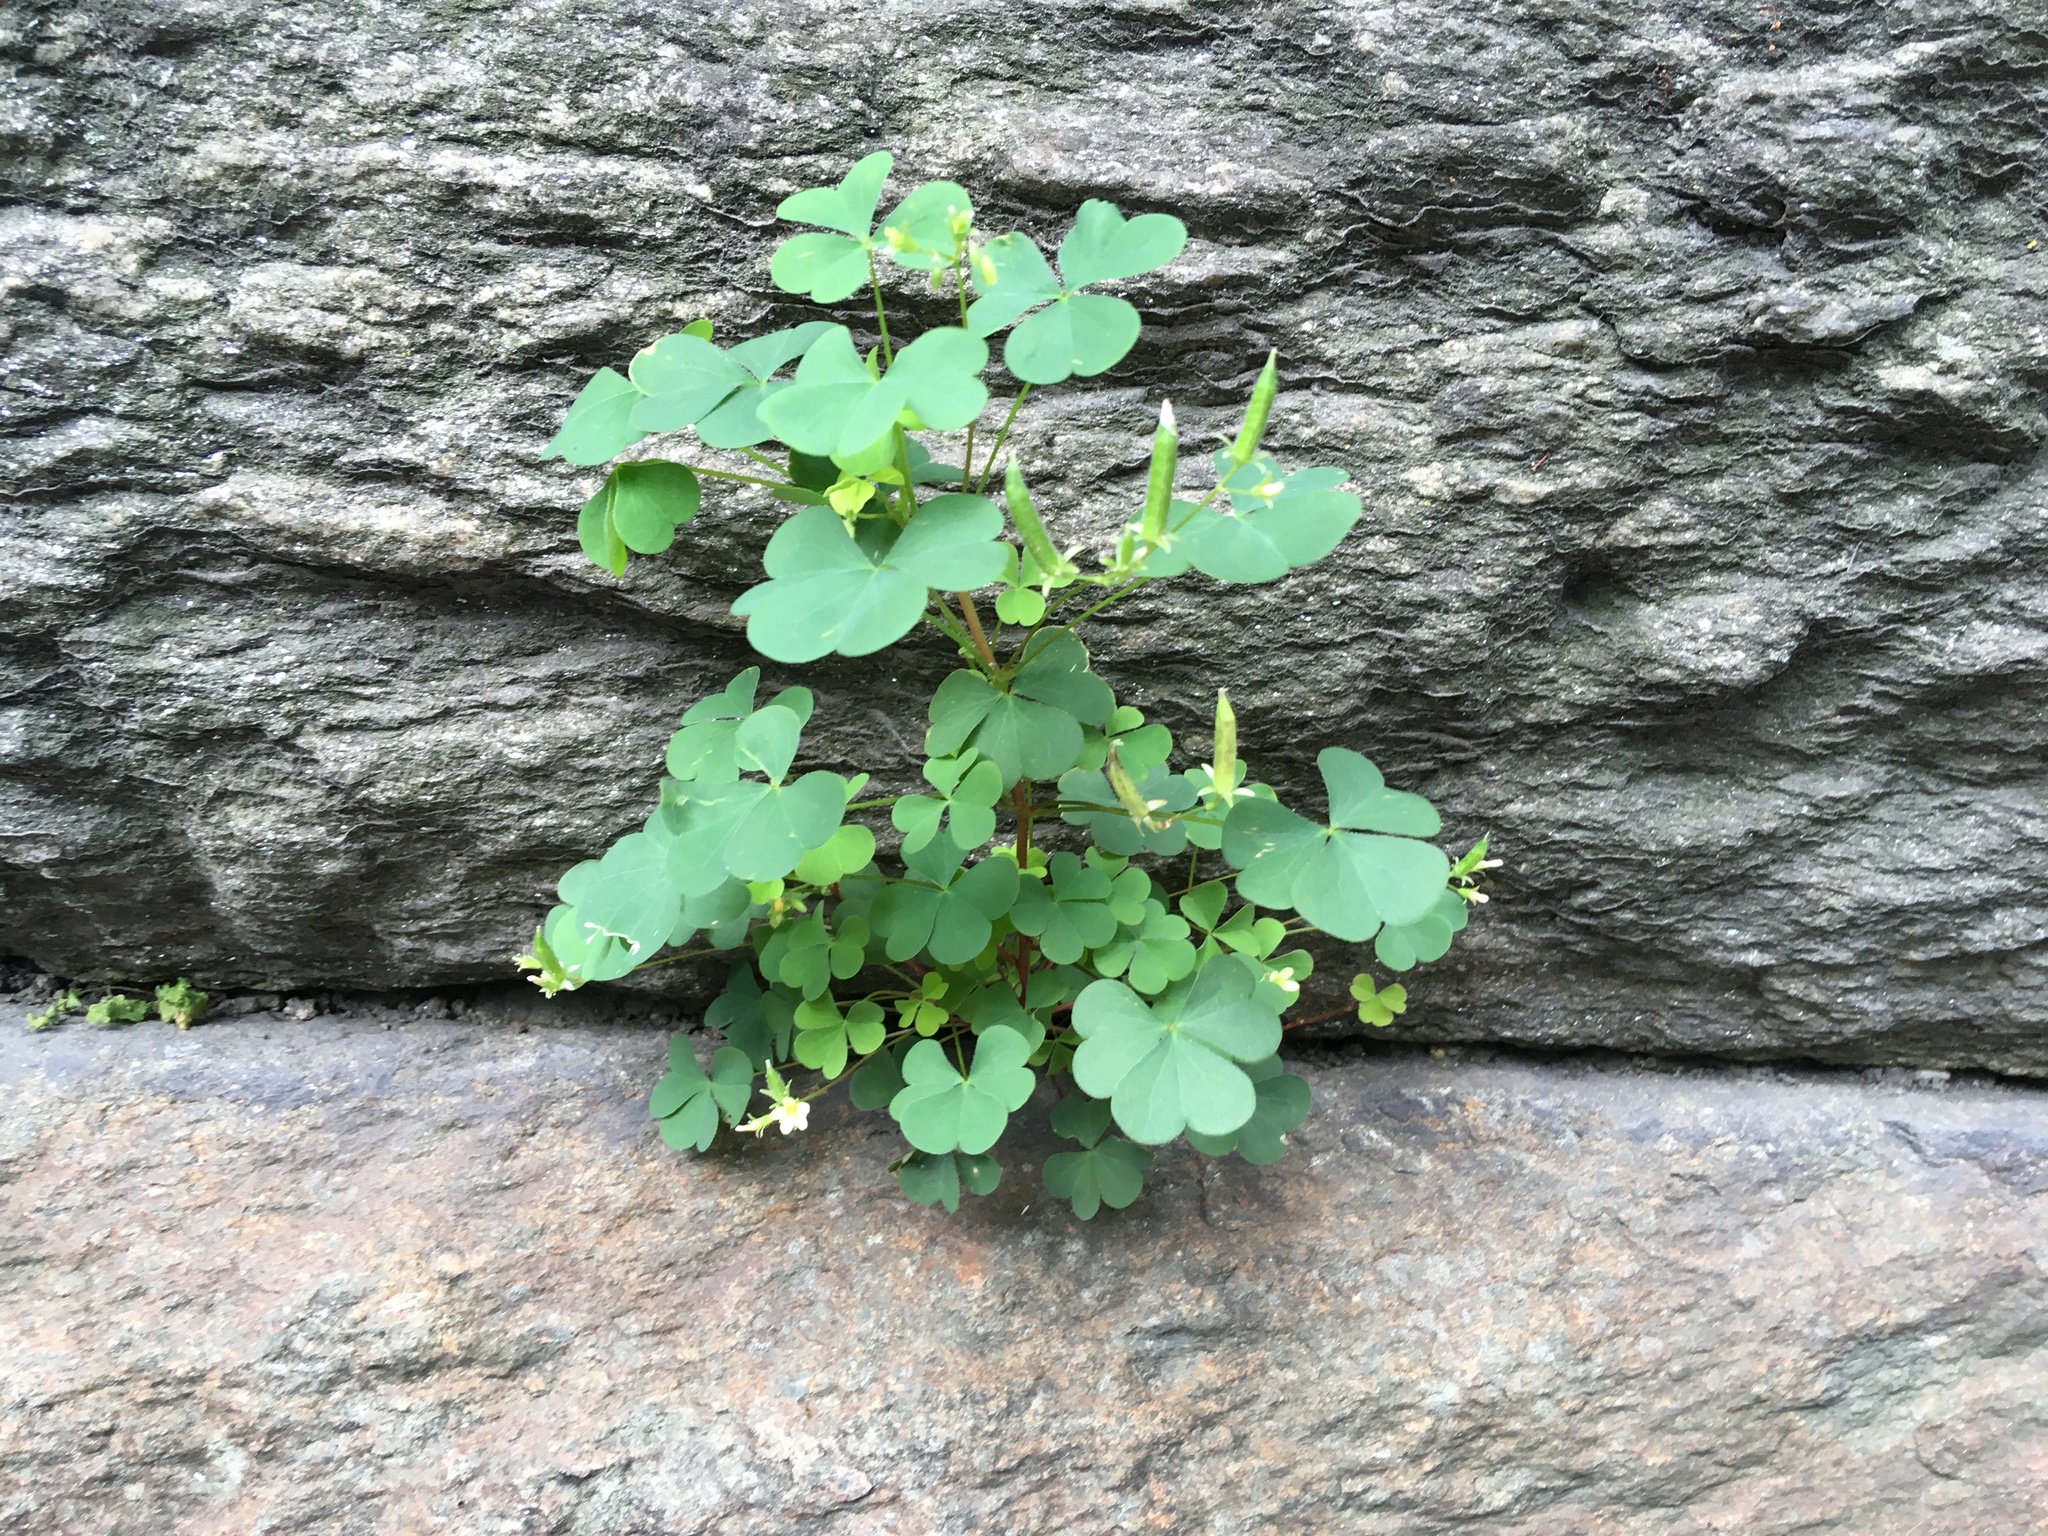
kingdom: Plantae
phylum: Tracheophyta
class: Magnoliopsida
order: Oxalidales
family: Oxalidaceae
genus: Oxalis
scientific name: Oxalis corniculata
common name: Procumbent yellow-sorrel
